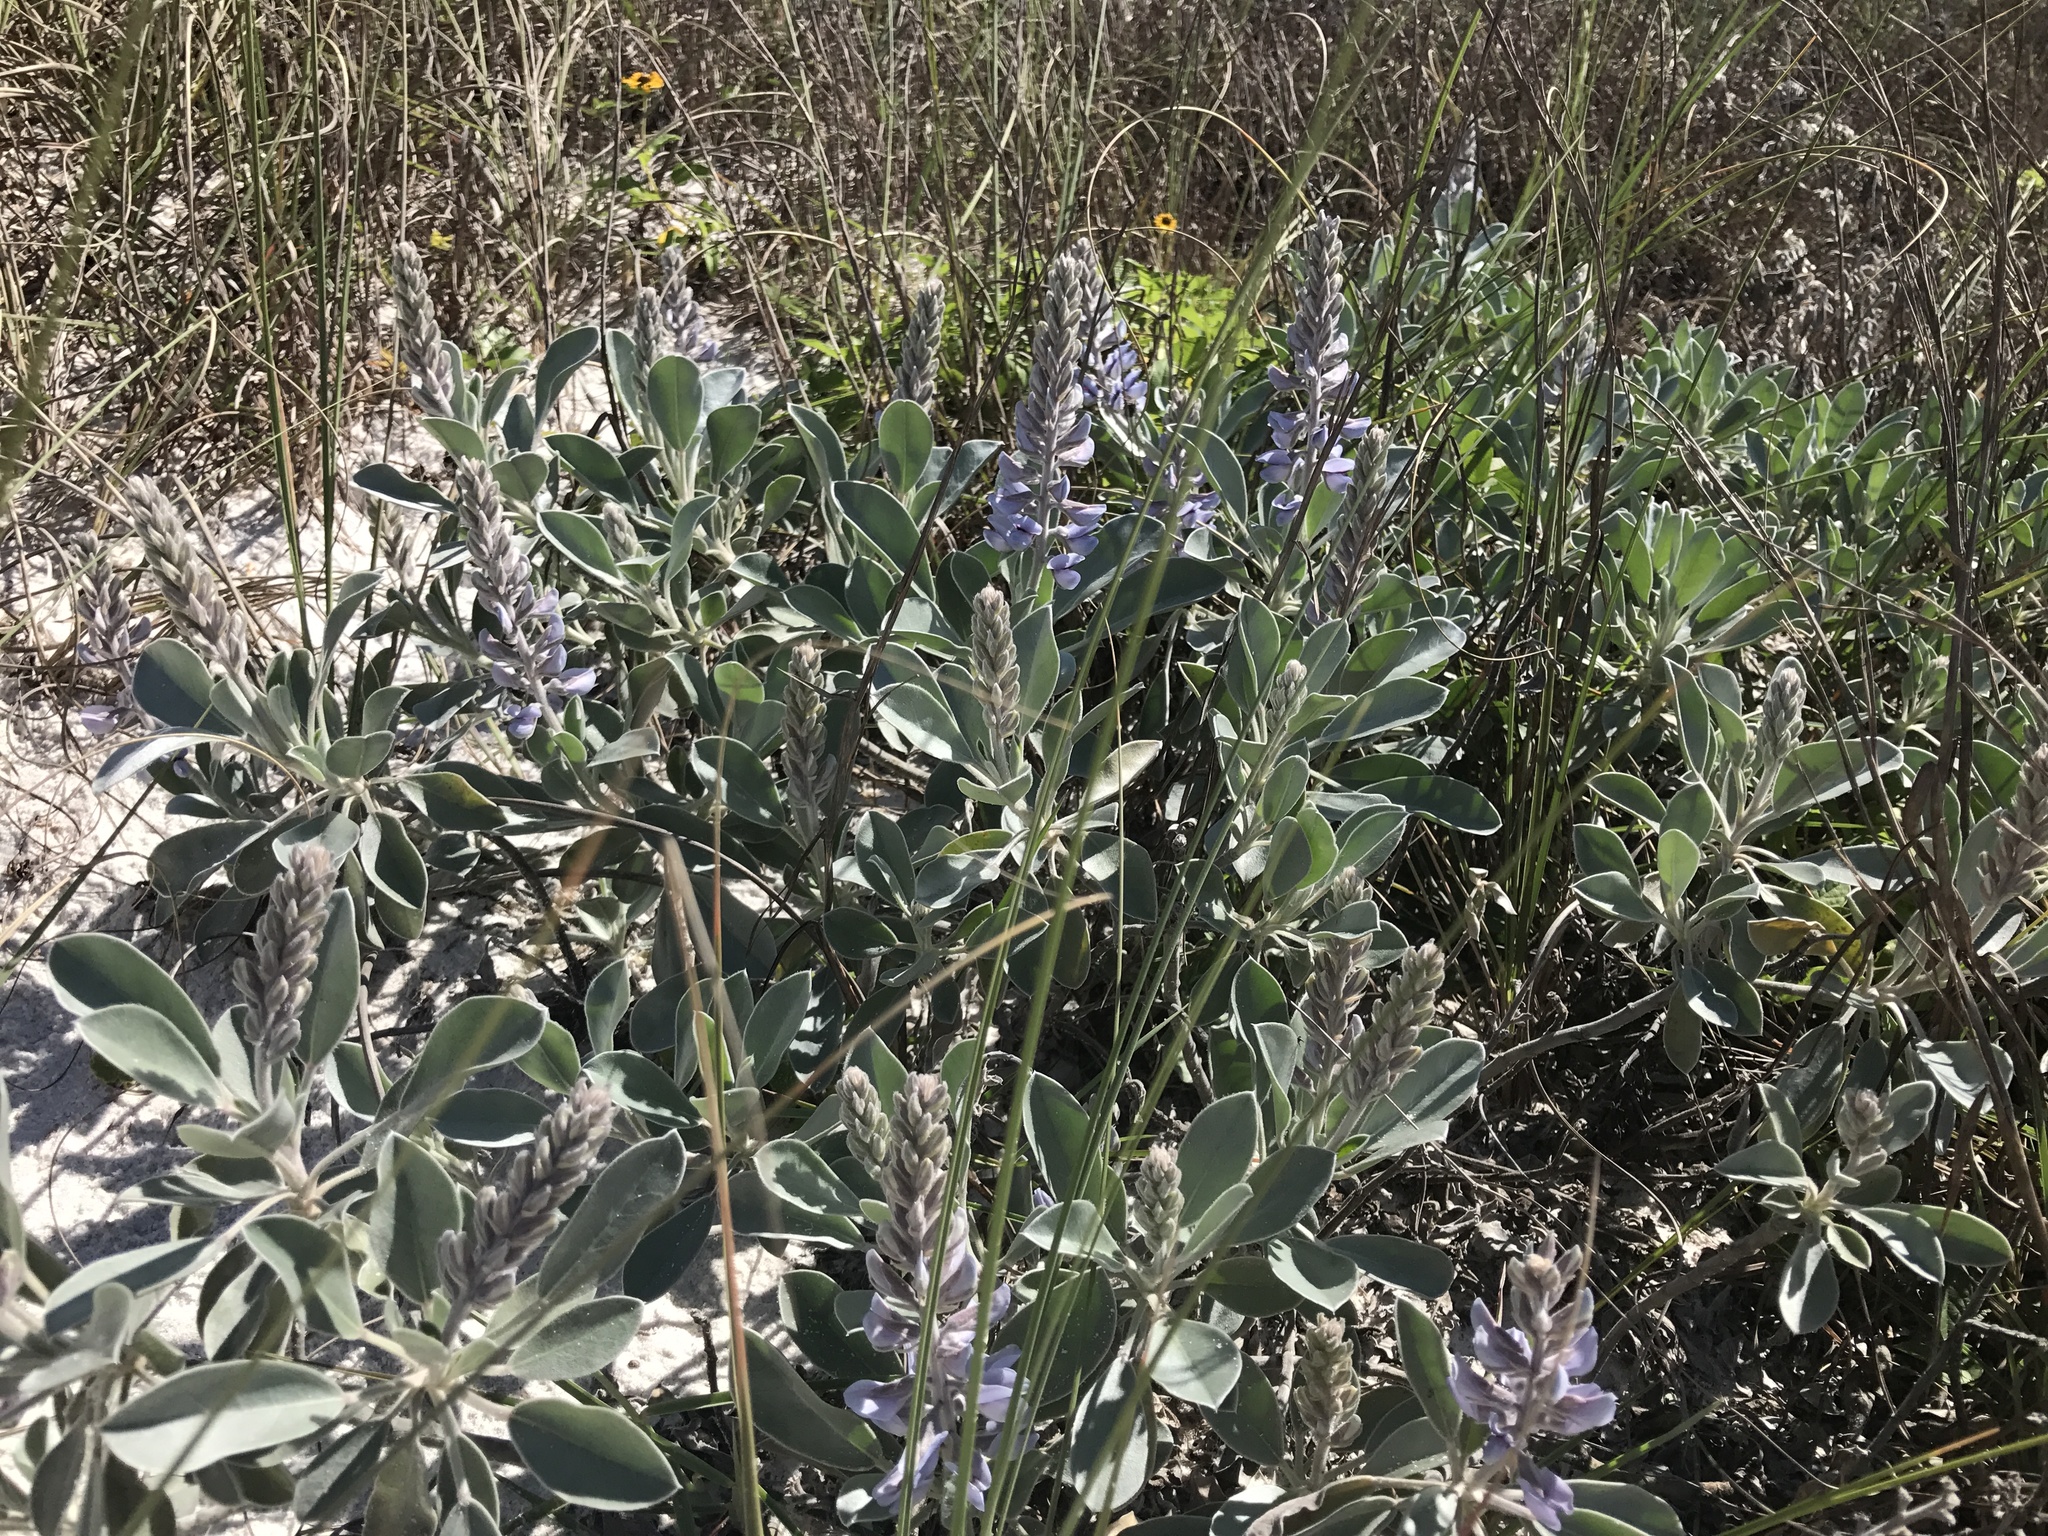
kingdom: Plantae
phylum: Tracheophyta
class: Magnoliopsida
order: Fabales
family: Fabaceae
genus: Lupinus
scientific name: Lupinus westianus
